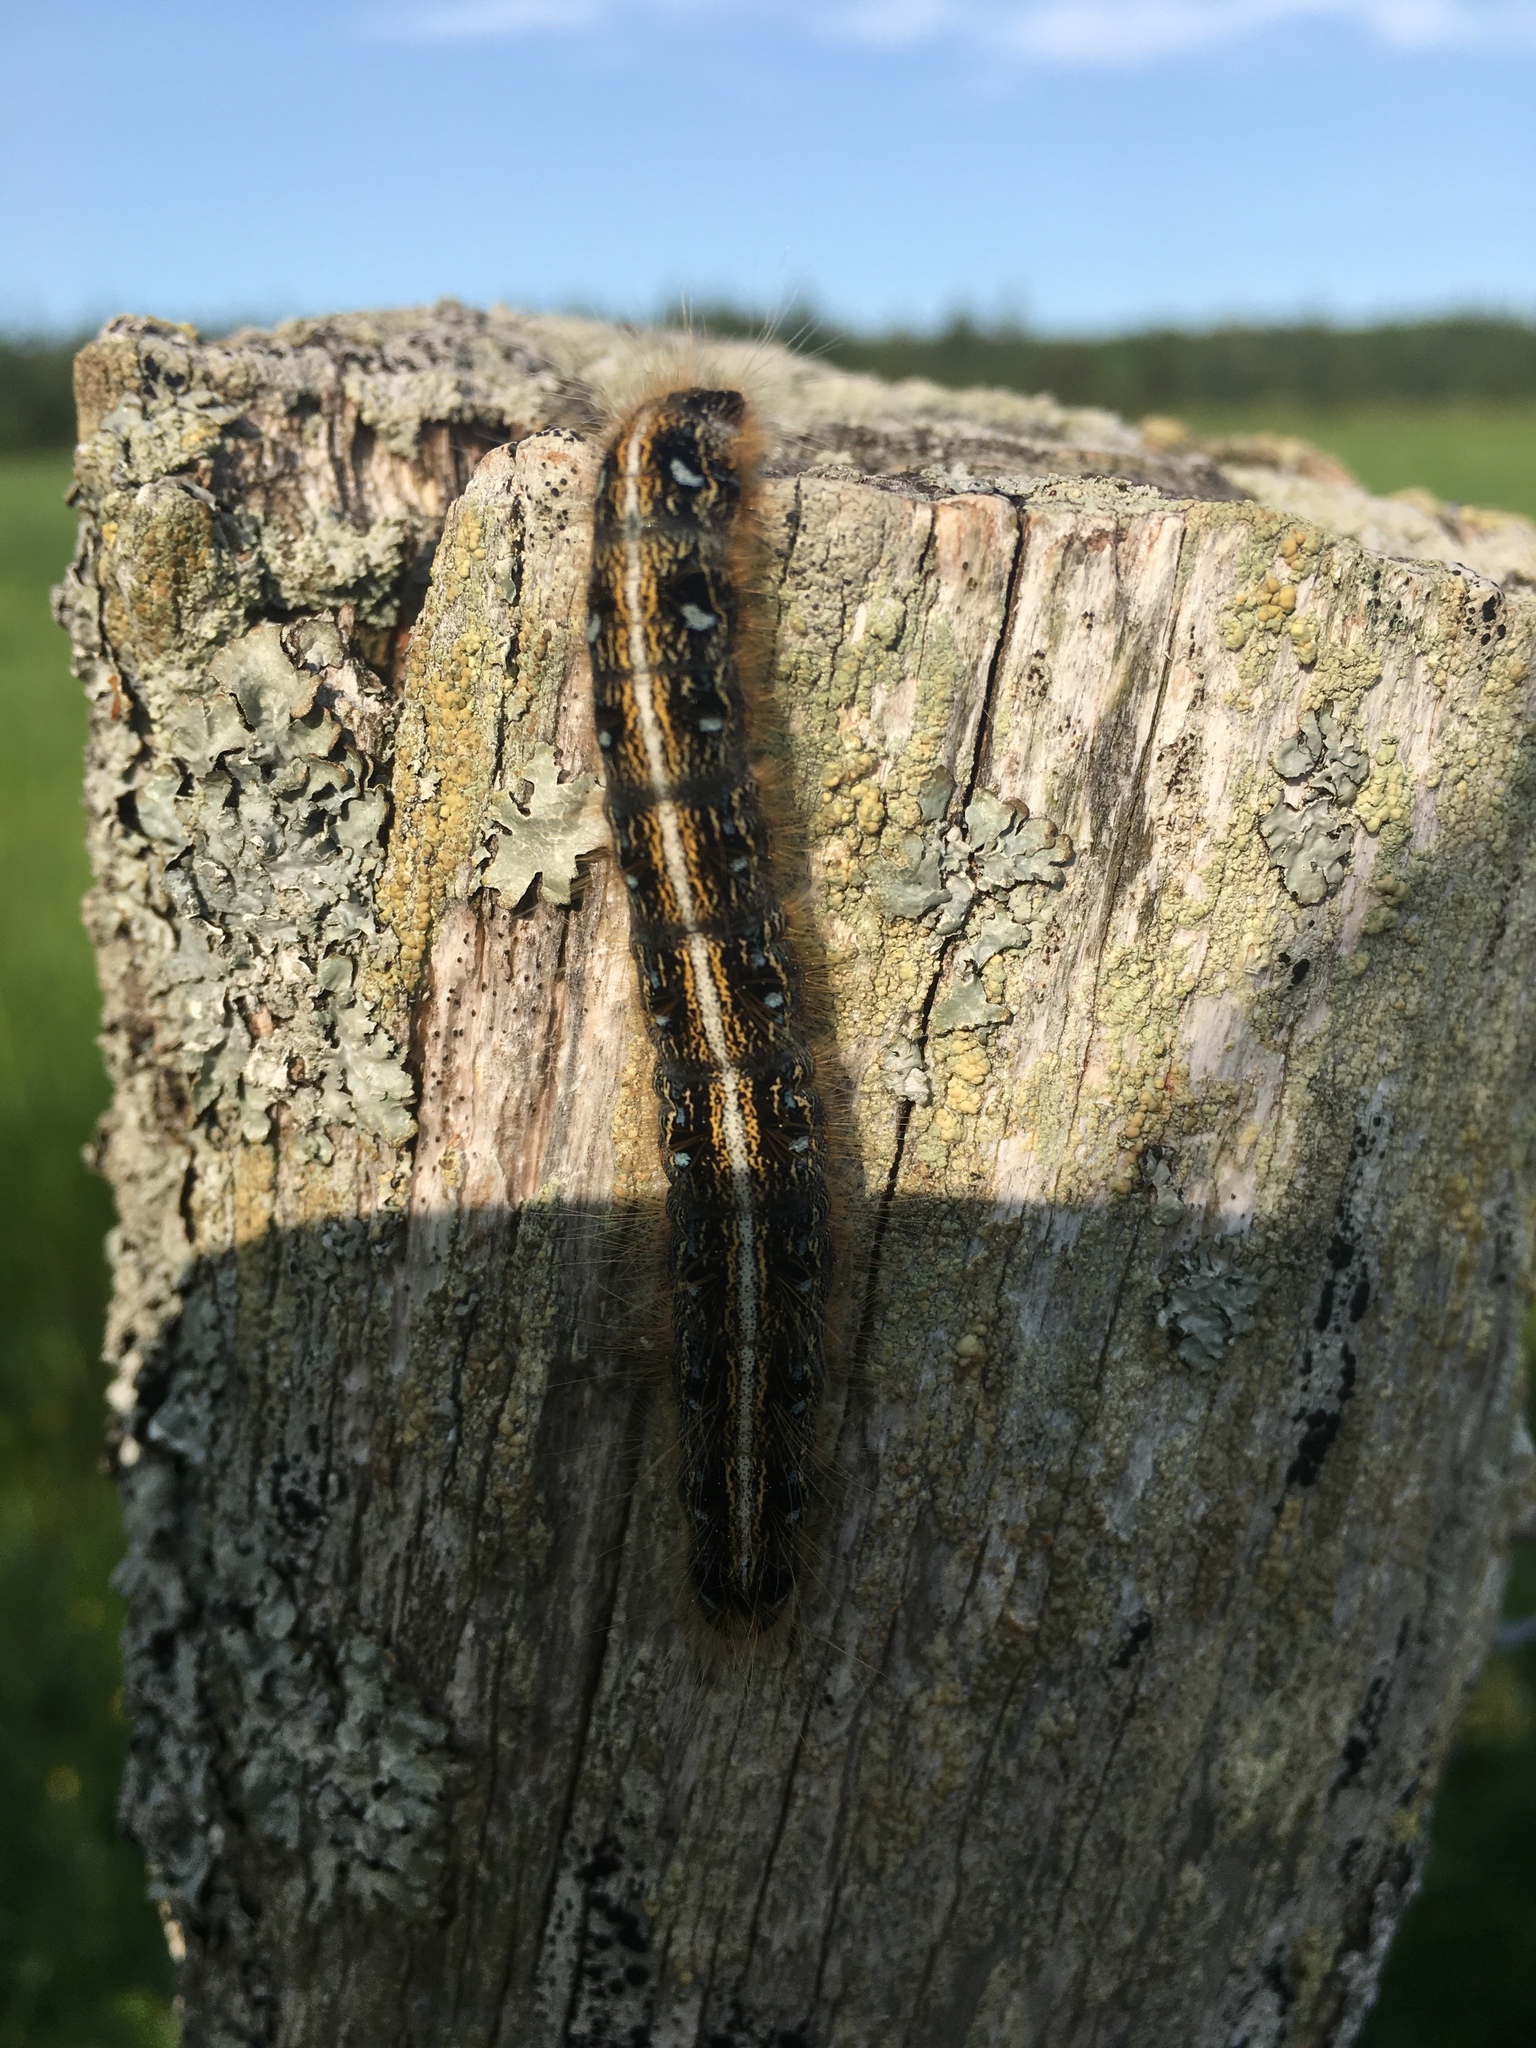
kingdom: Animalia
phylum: Arthropoda
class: Insecta
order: Lepidoptera
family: Lasiocampidae
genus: Malacosoma
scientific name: Malacosoma americana
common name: Eastern tent caterpillar moth
